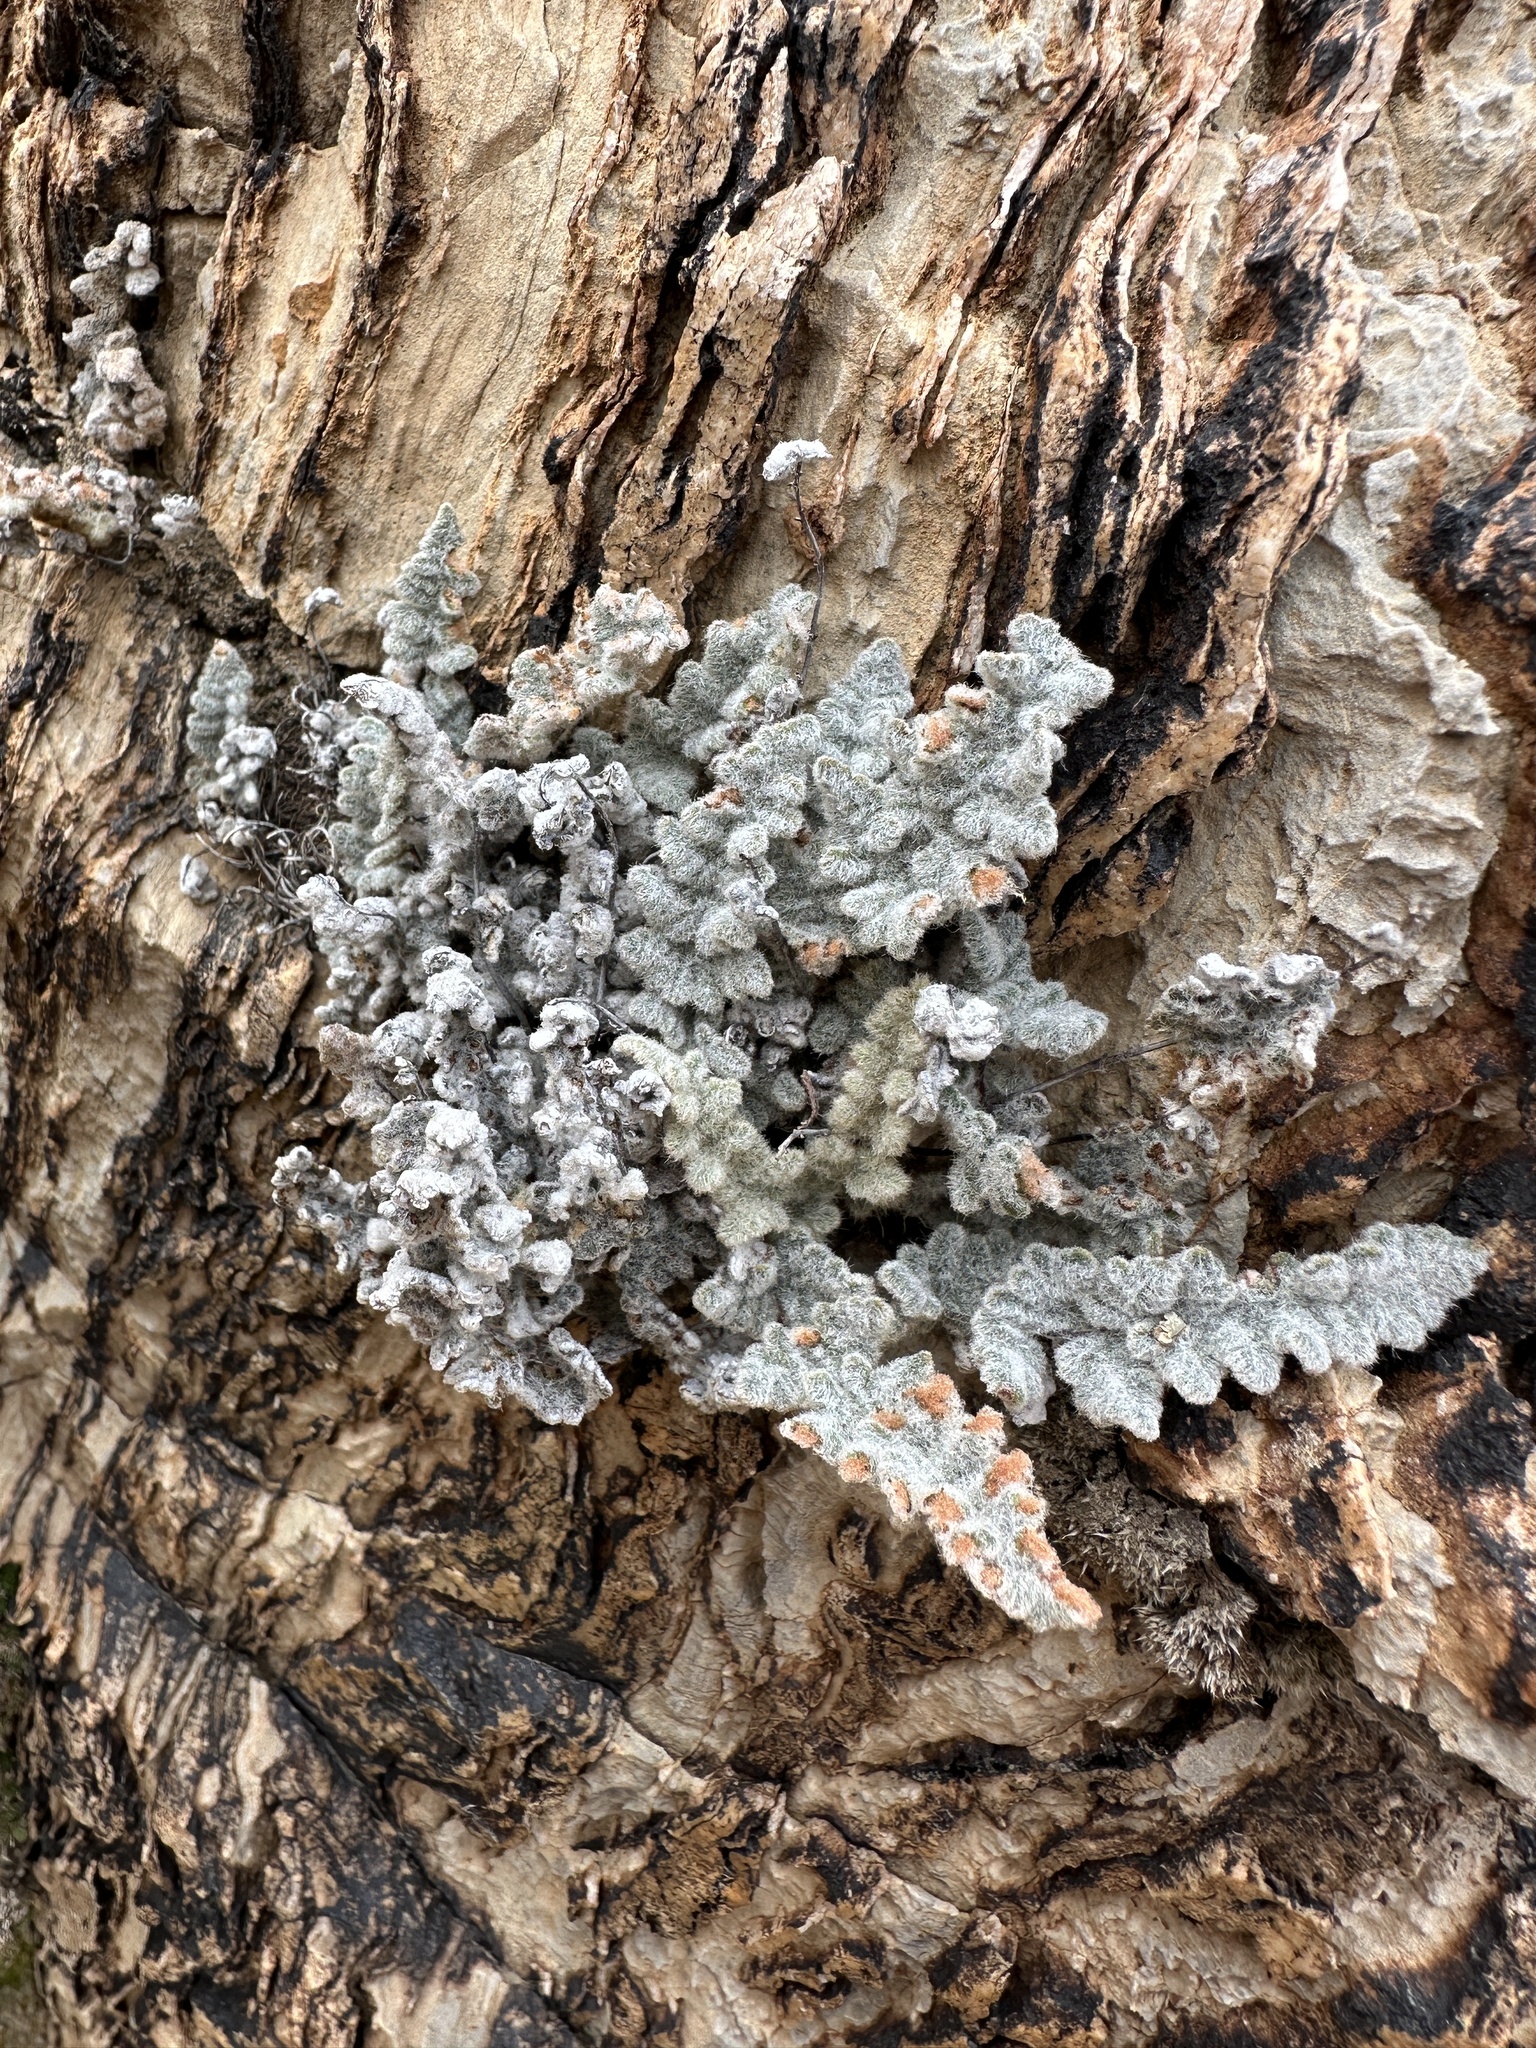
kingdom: Plantae
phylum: Tracheophyta
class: Polypodiopsida
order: Polypodiales
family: Pteridaceae
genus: Myriopteris
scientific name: Myriopteris parryi
